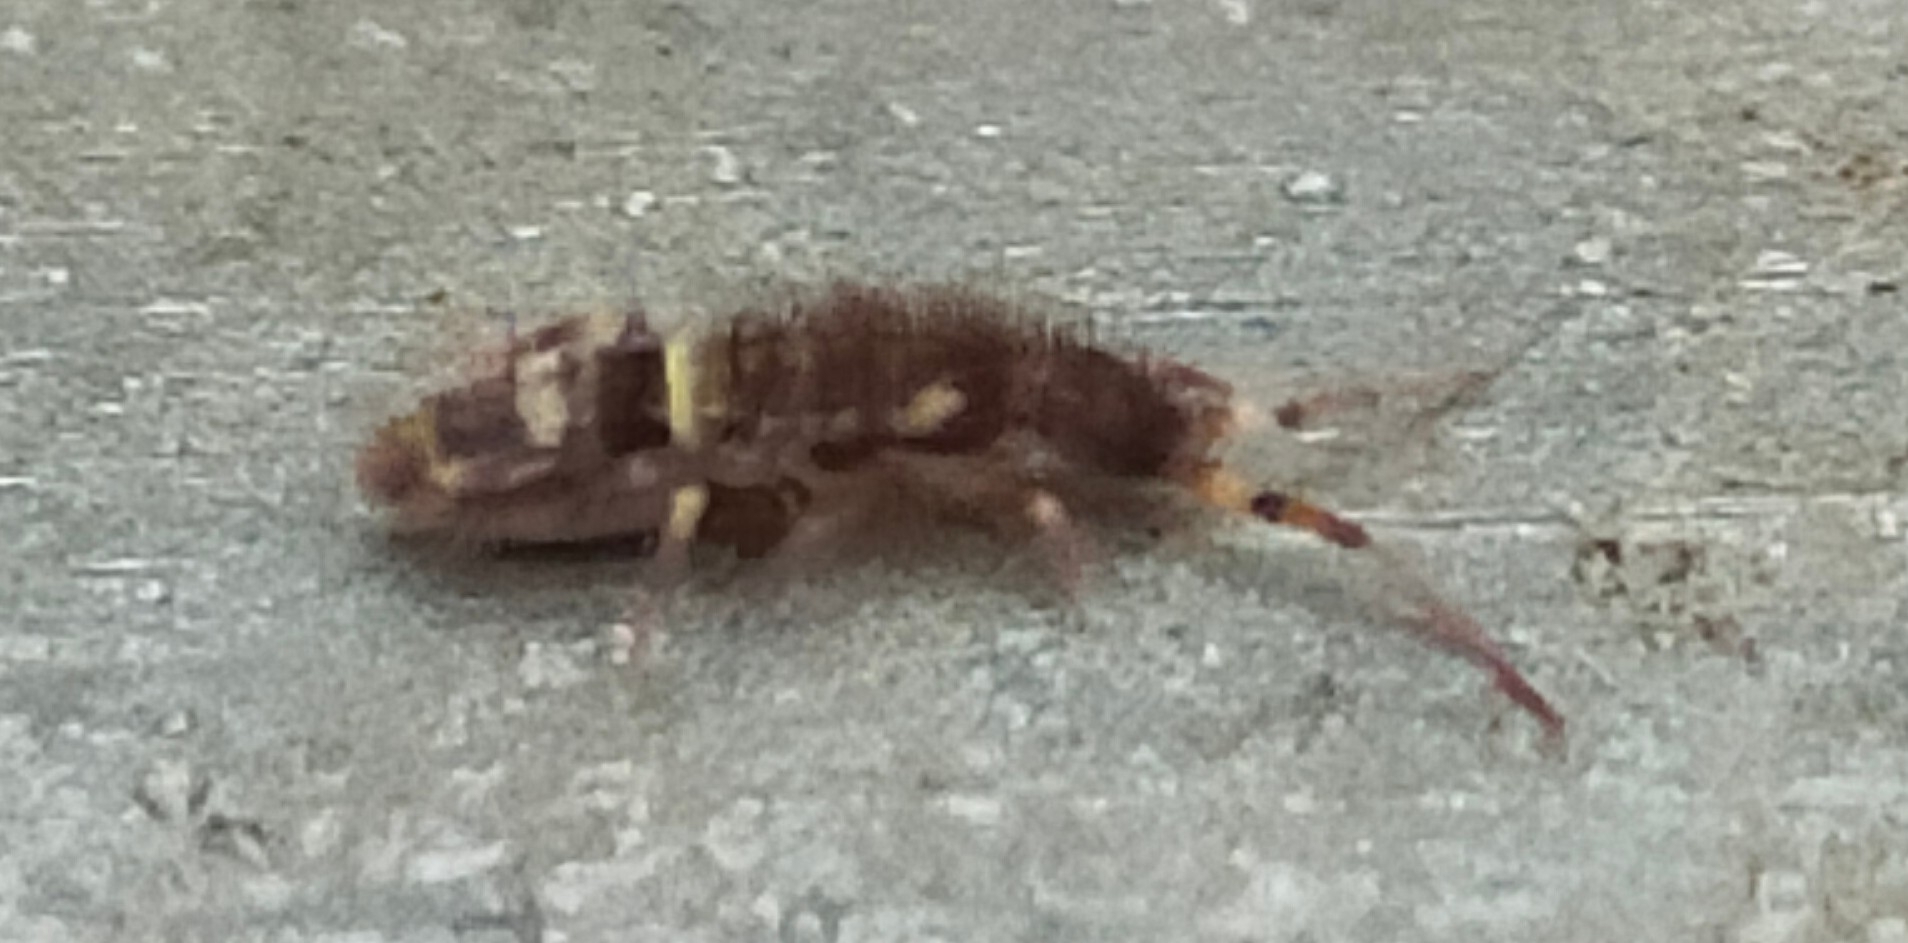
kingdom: Animalia
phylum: Arthropoda
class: Collembola
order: Entomobryomorpha
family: Orchesellidae
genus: Orchesella
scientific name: Orchesella cincta
